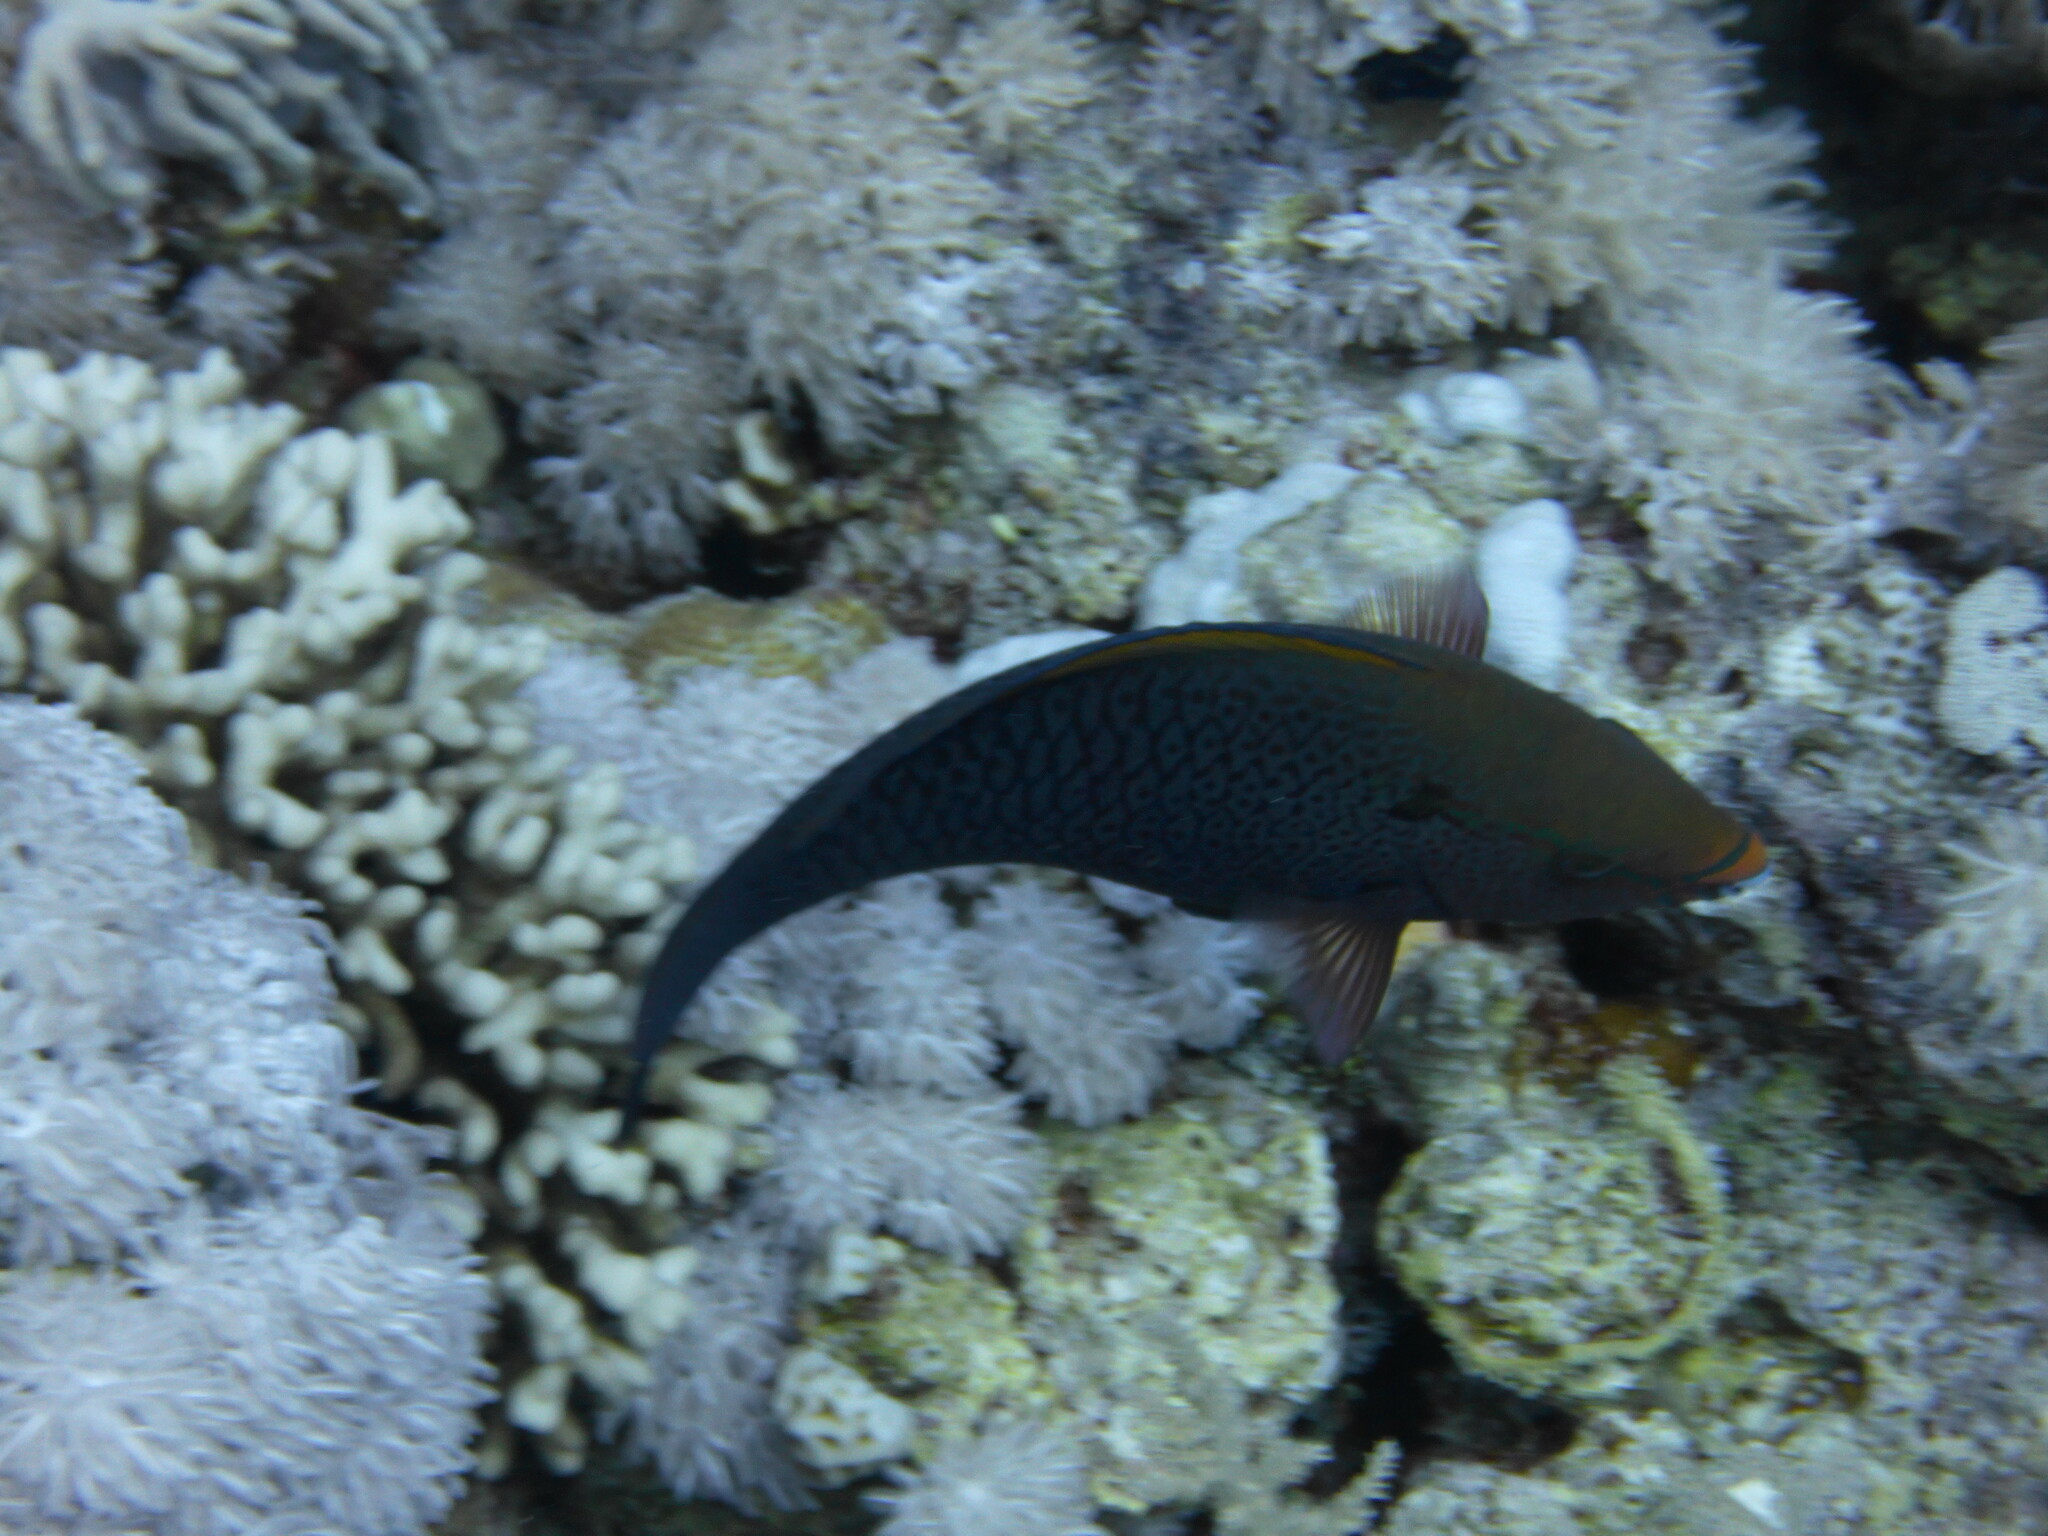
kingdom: Animalia
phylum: Chordata
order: Perciformes
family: Scaridae
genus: Scarus
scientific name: Scarus niger
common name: Dusky parrotfish
